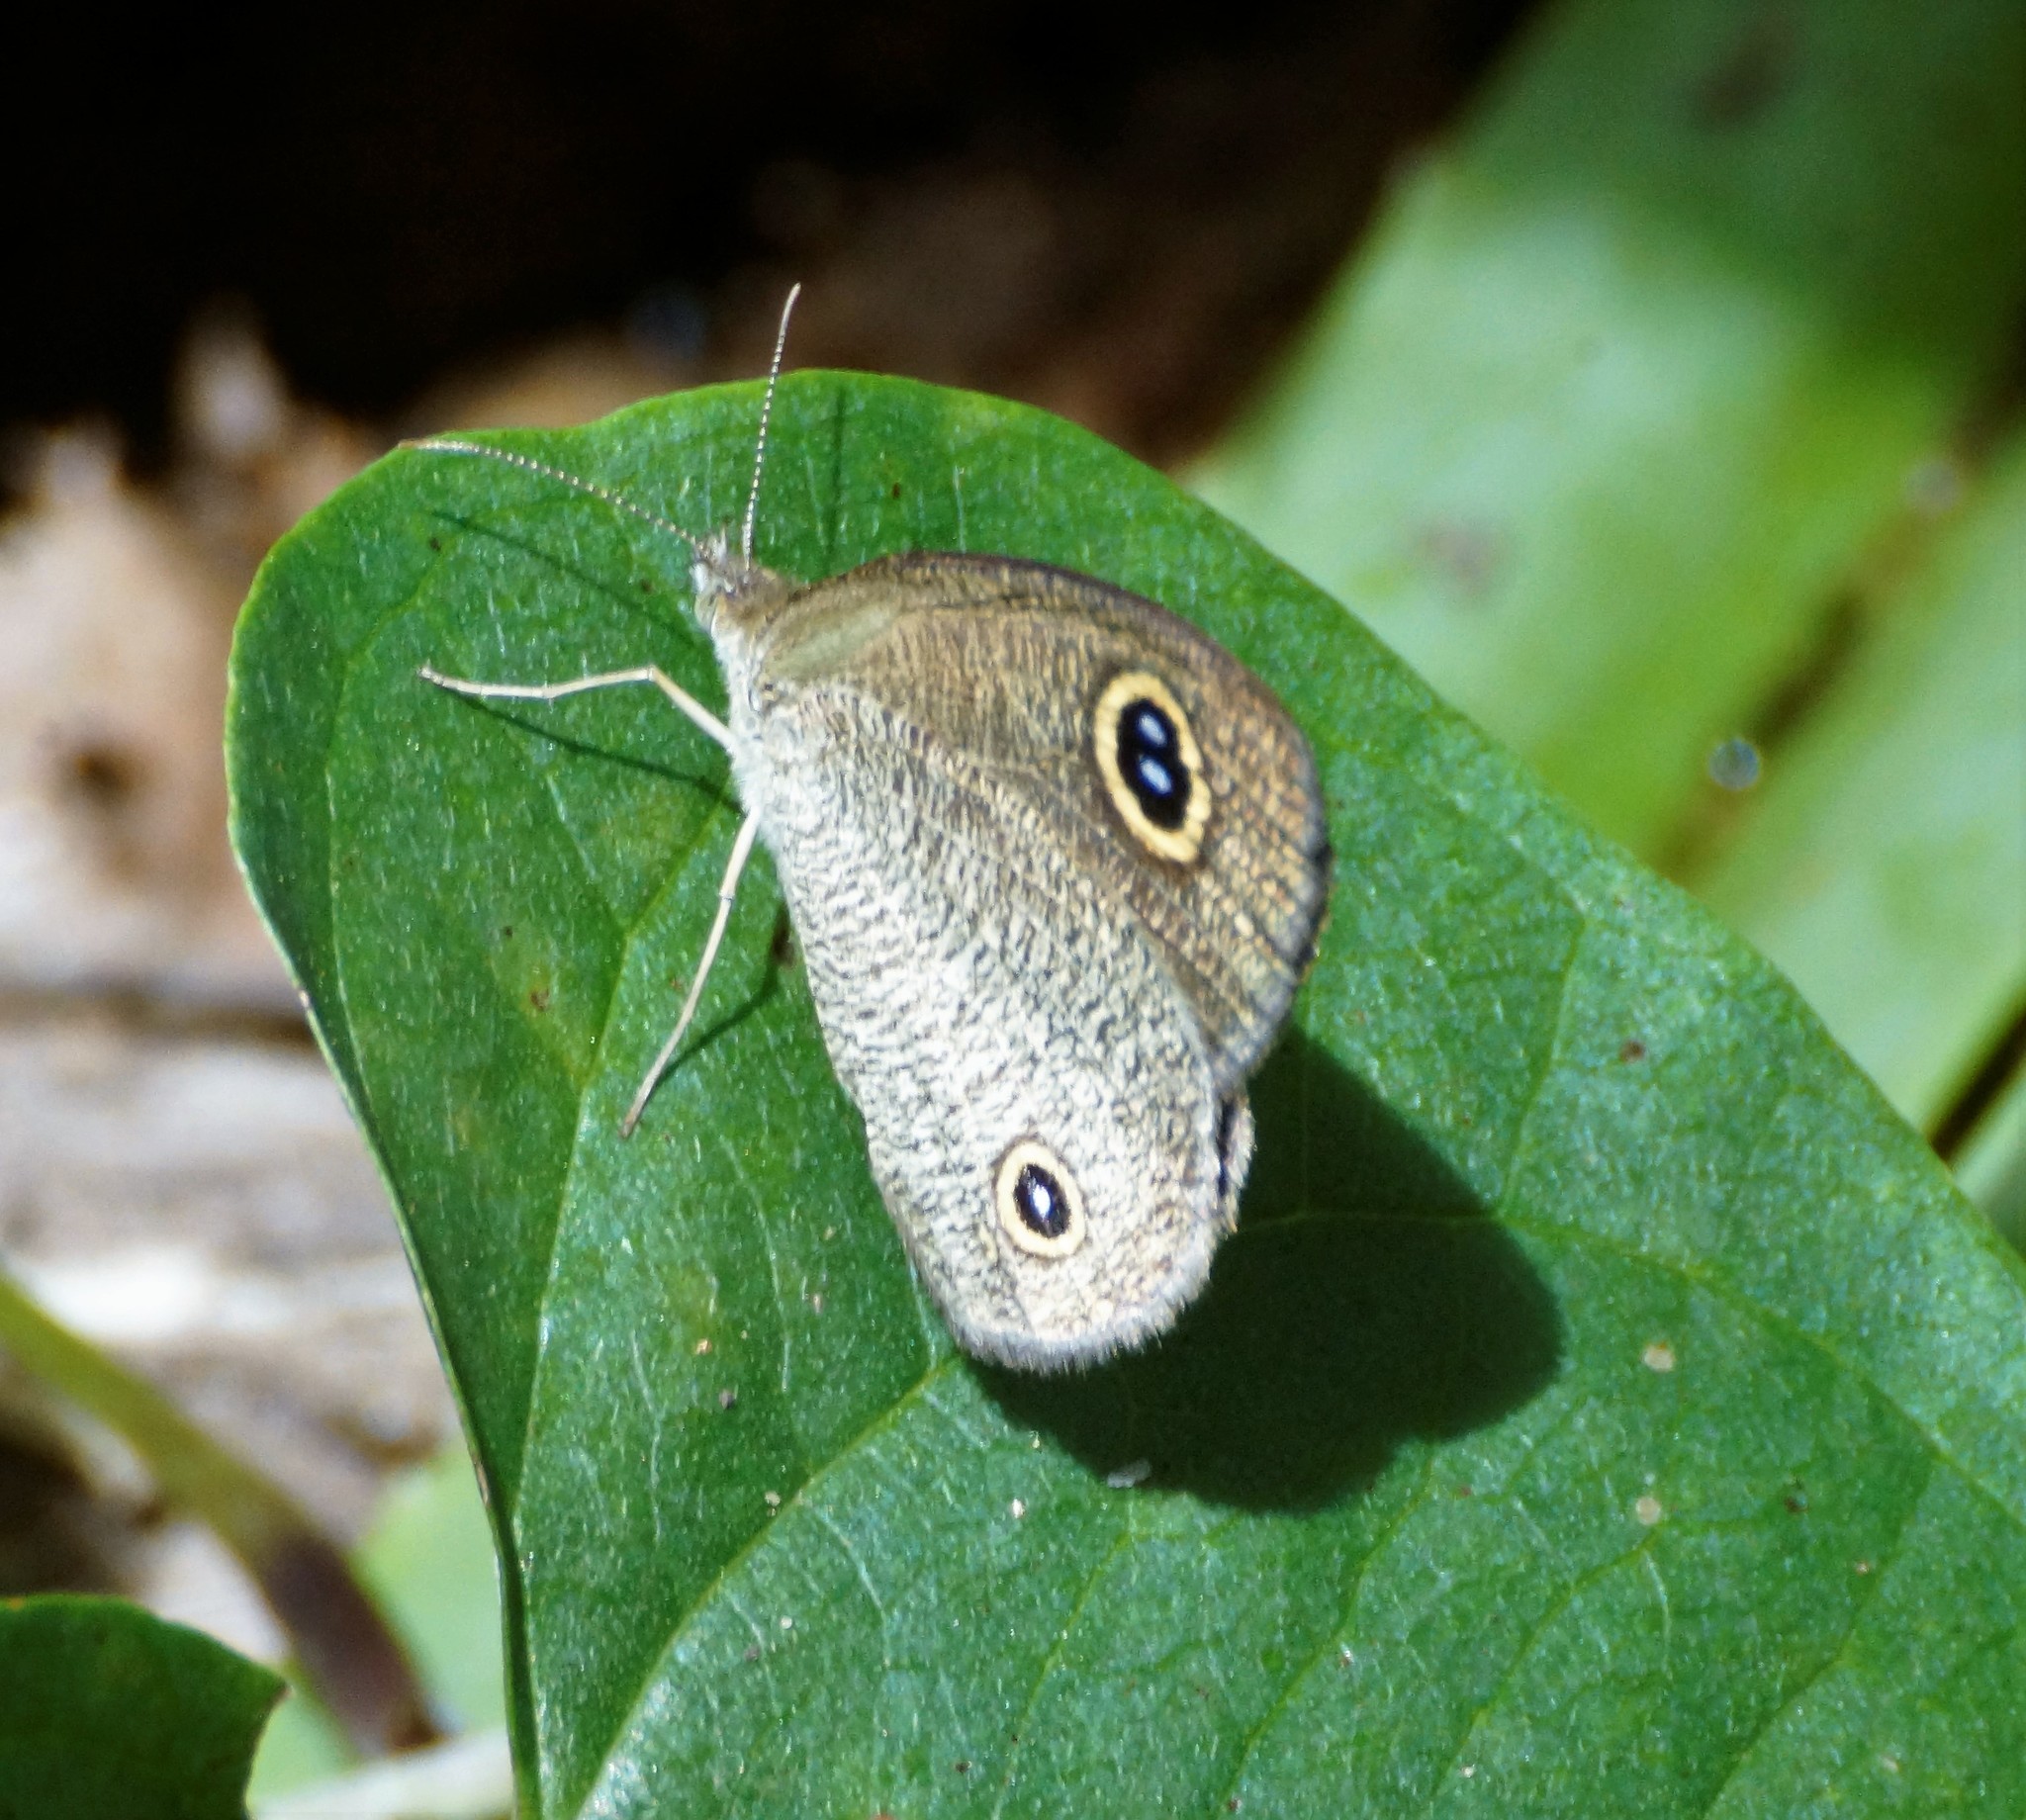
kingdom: Animalia
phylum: Arthropoda
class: Insecta
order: Lepidoptera
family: Nymphalidae
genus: Ypthima
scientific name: Ypthima arctous
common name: Dusky knight
